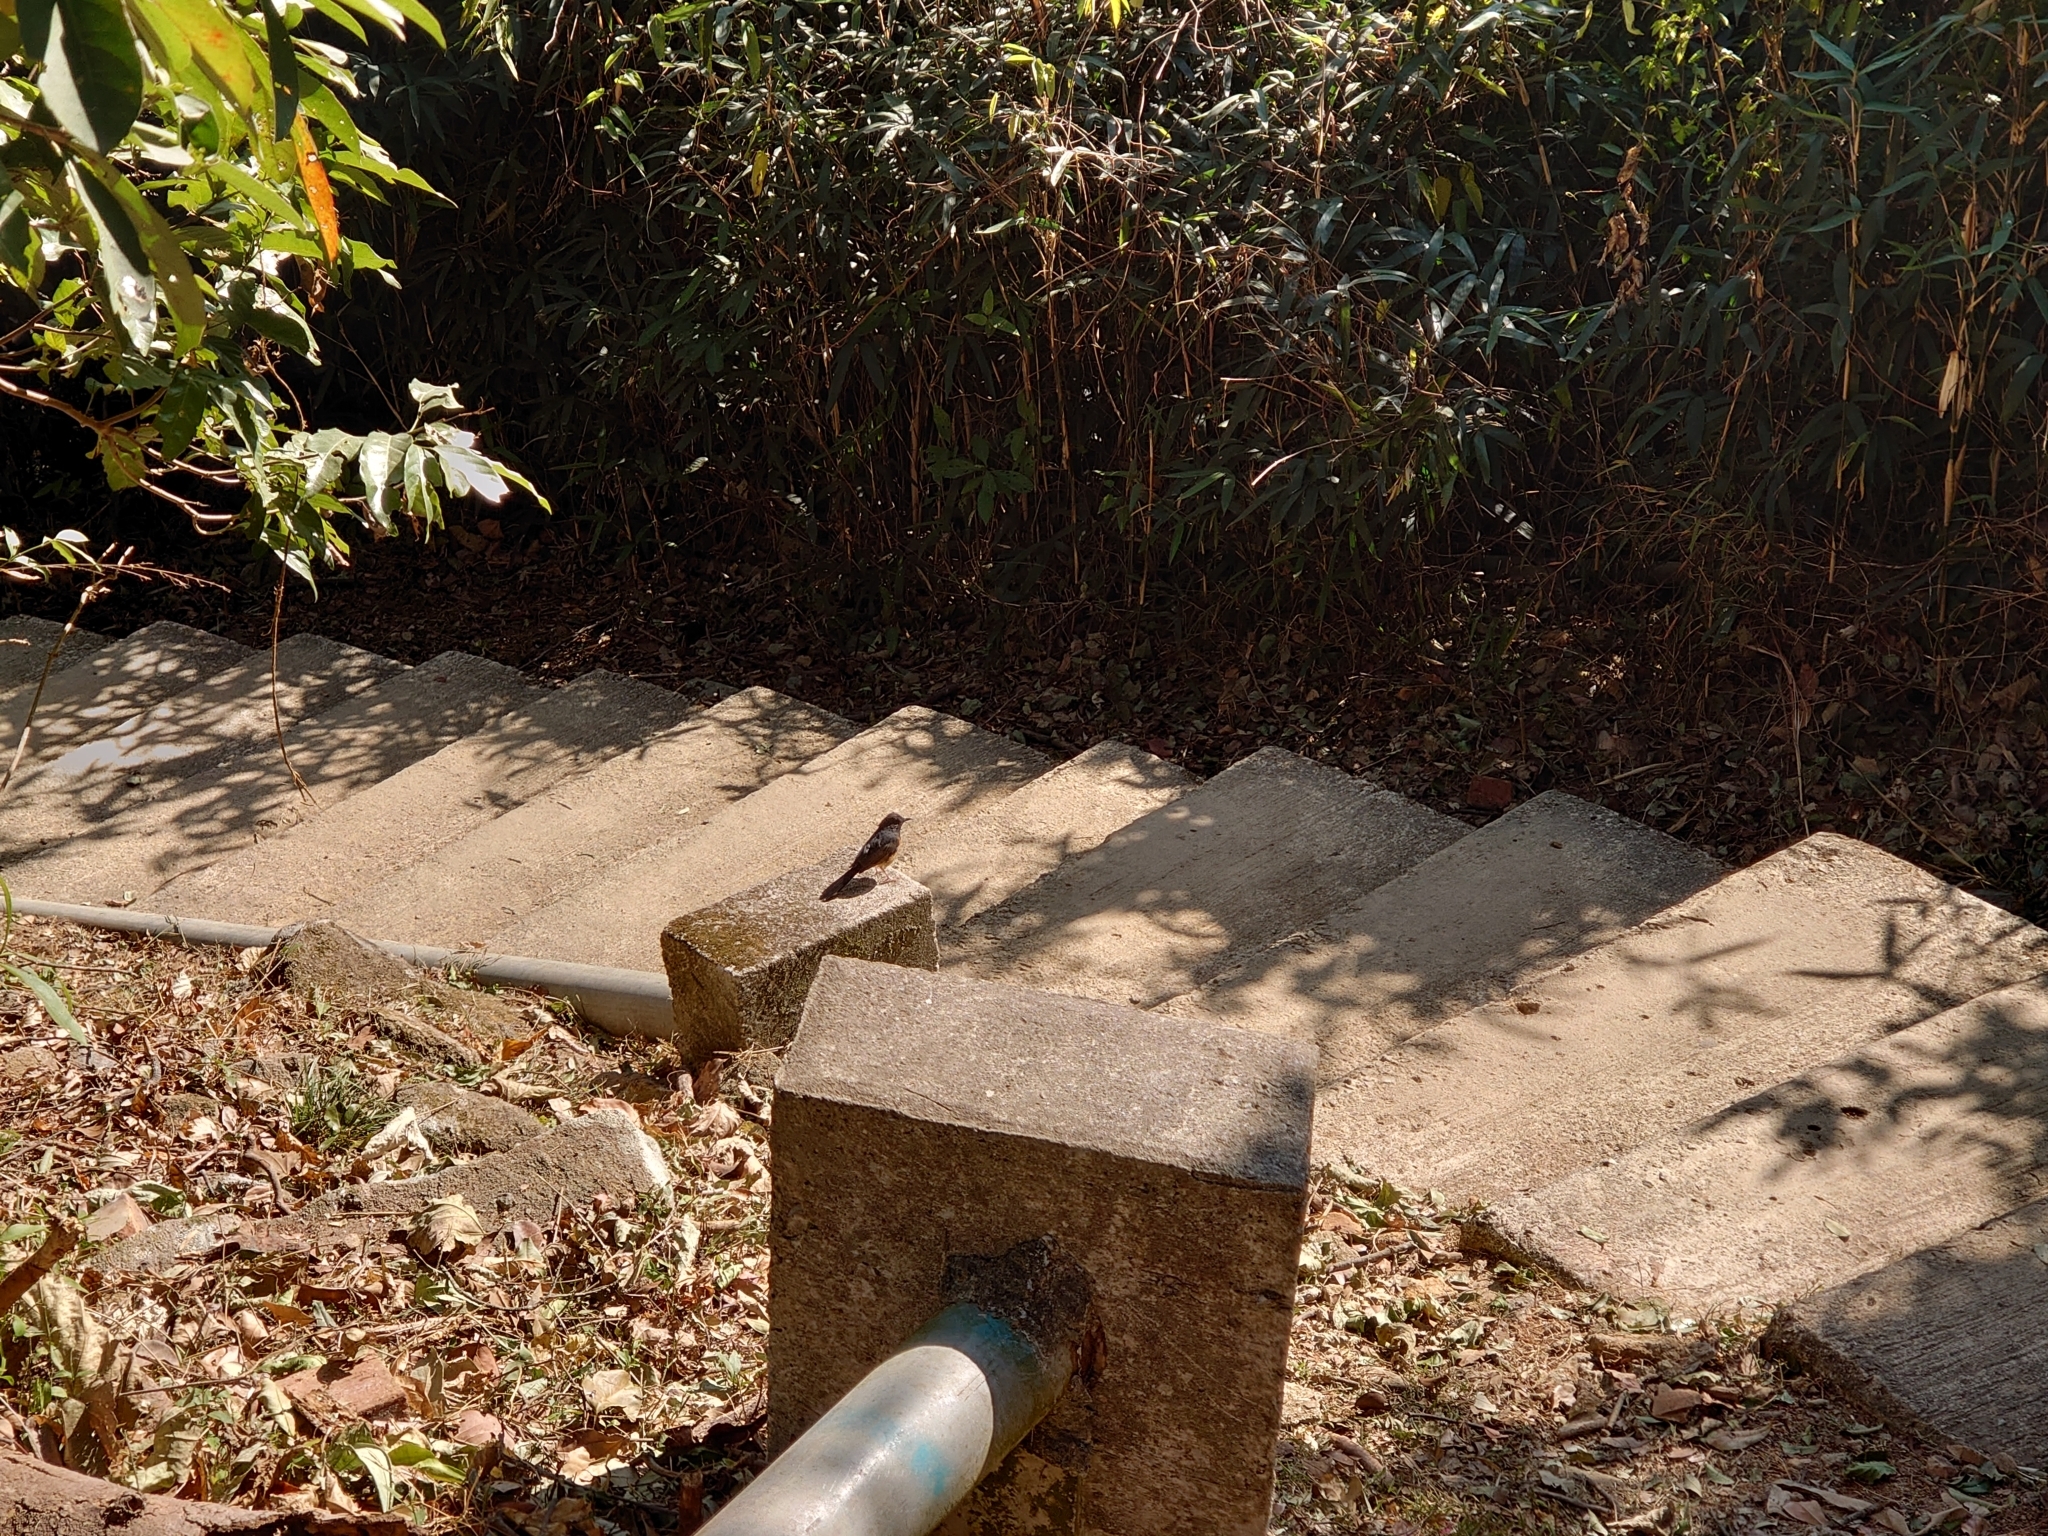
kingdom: Animalia
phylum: Chordata
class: Aves
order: Passeriformes
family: Muscicapidae
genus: Copsychus
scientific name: Copsychus malabaricus
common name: White-rumped shama
